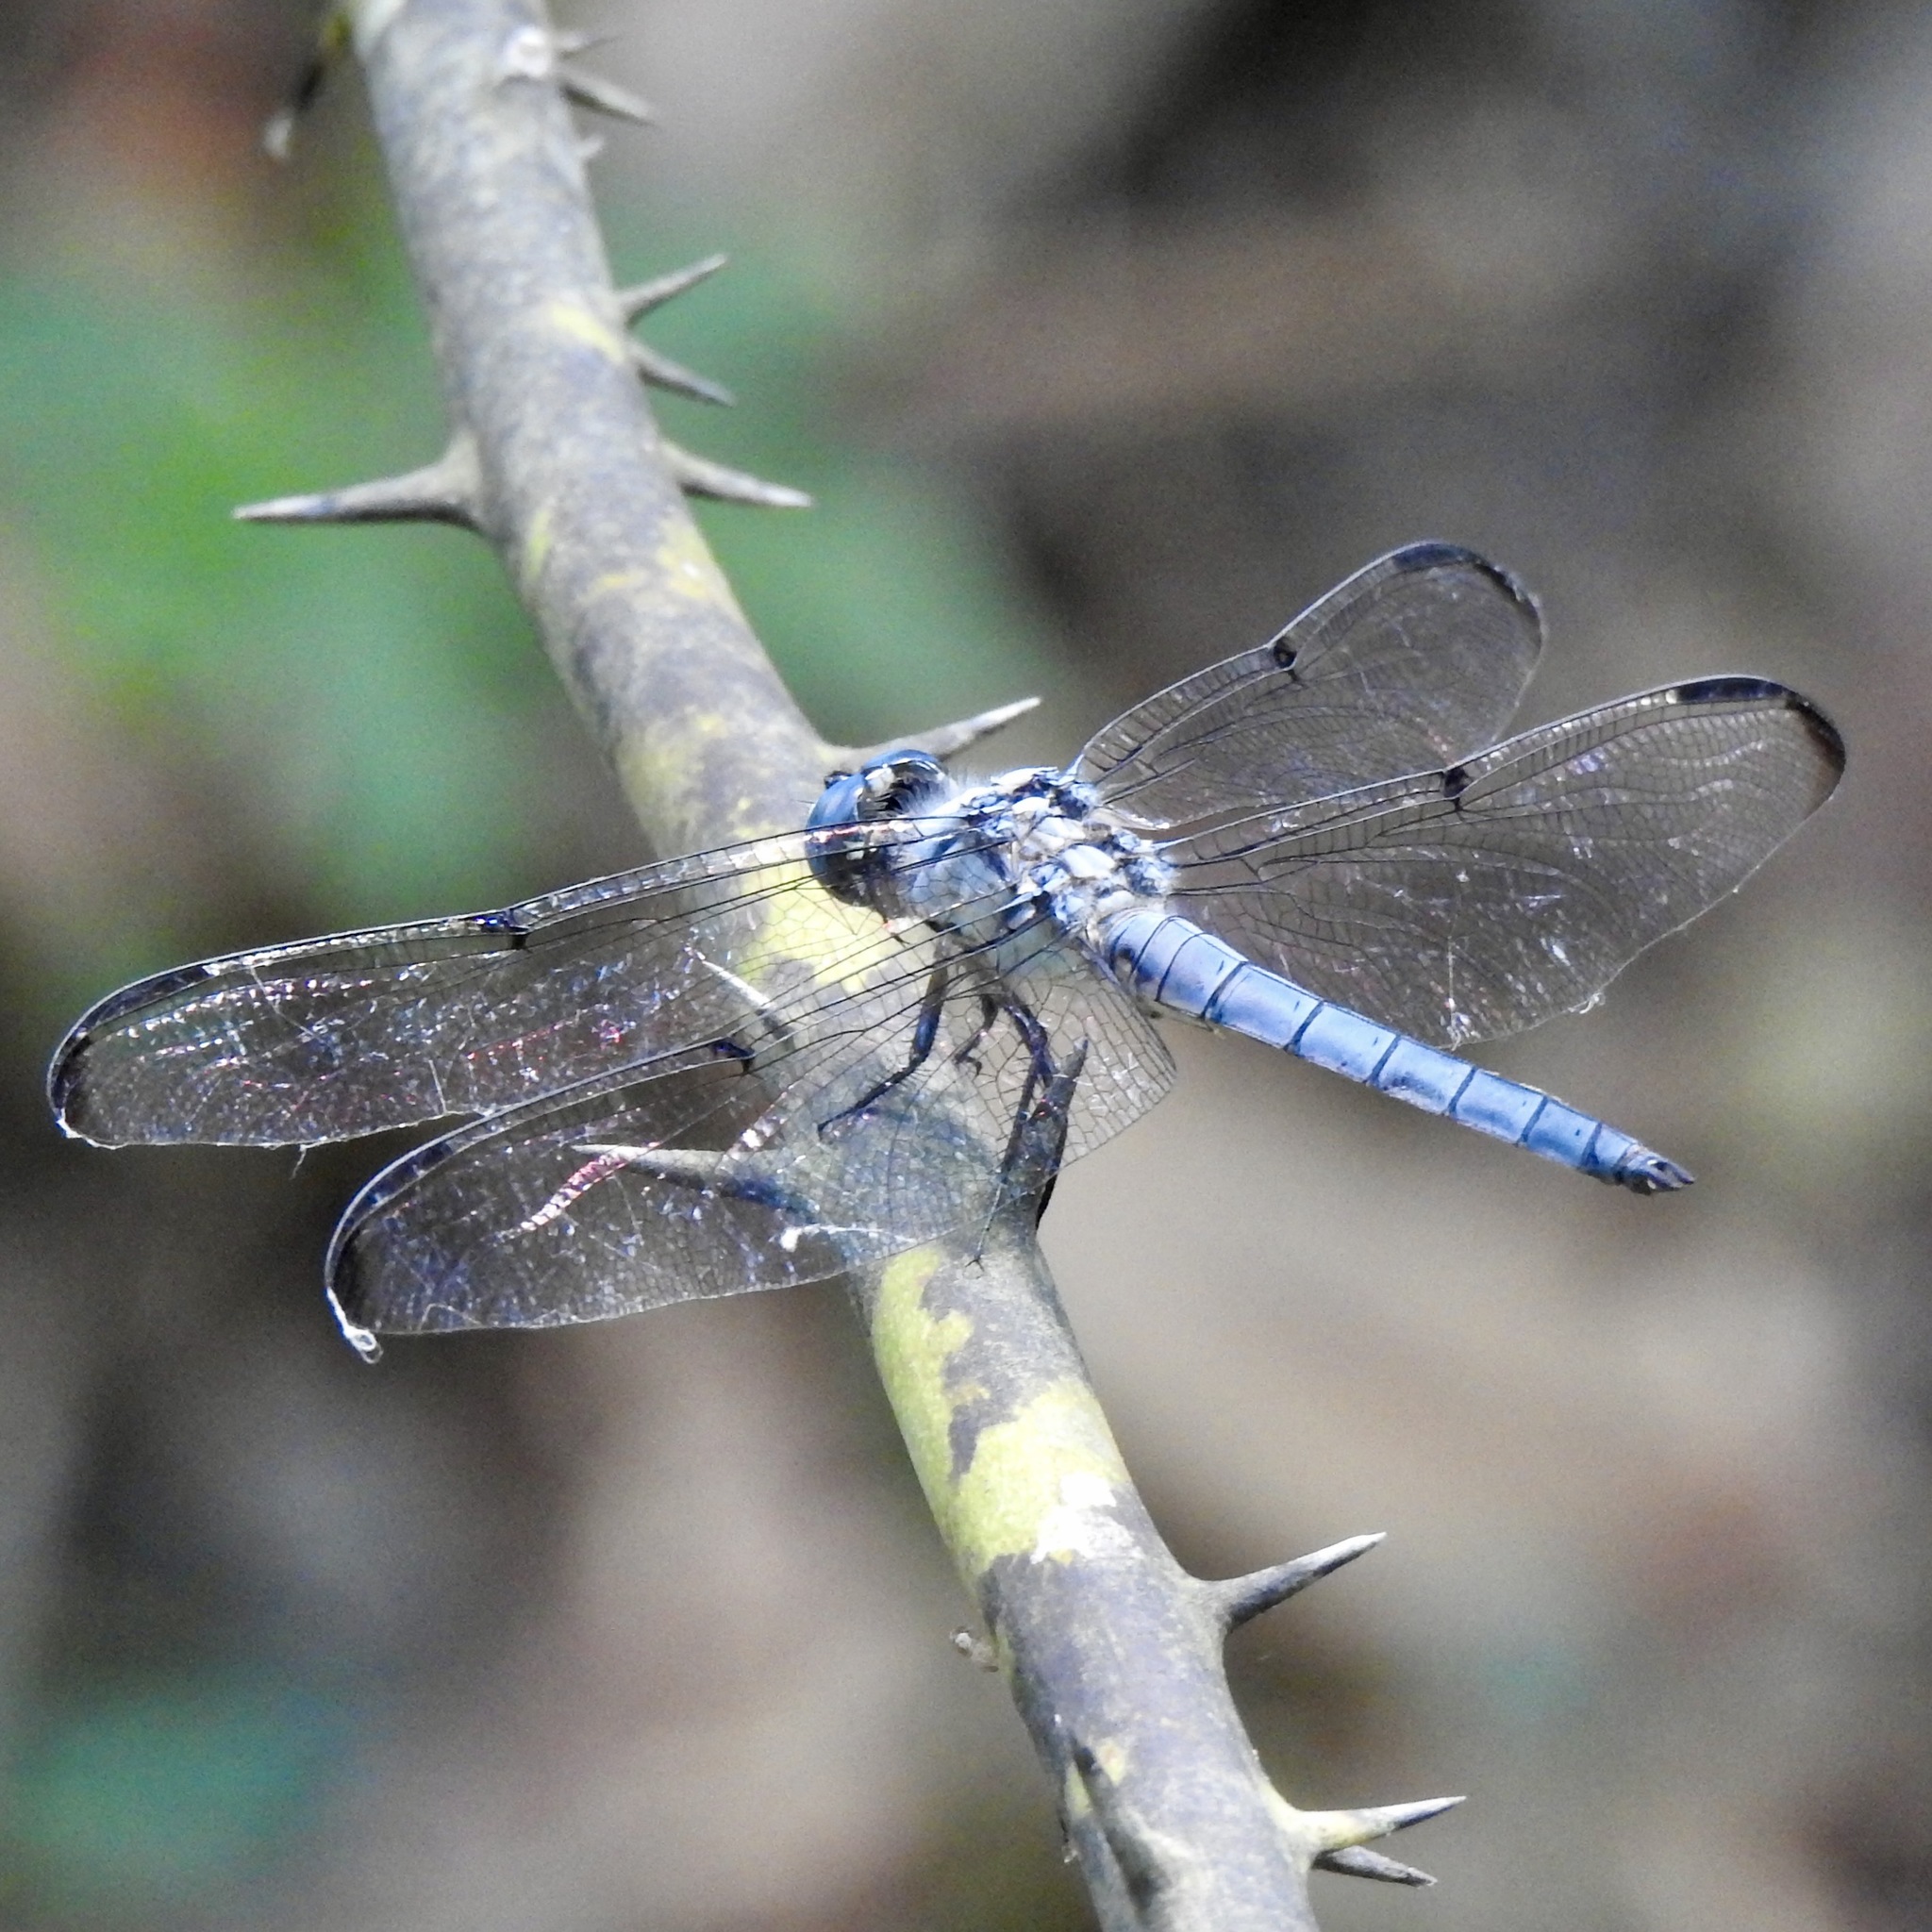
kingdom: Animalia
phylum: Arthropoda
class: Insecta
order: Odonata
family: Libellulidae
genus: Libellula
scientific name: Libellula vibrans
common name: Great blue skimmer
